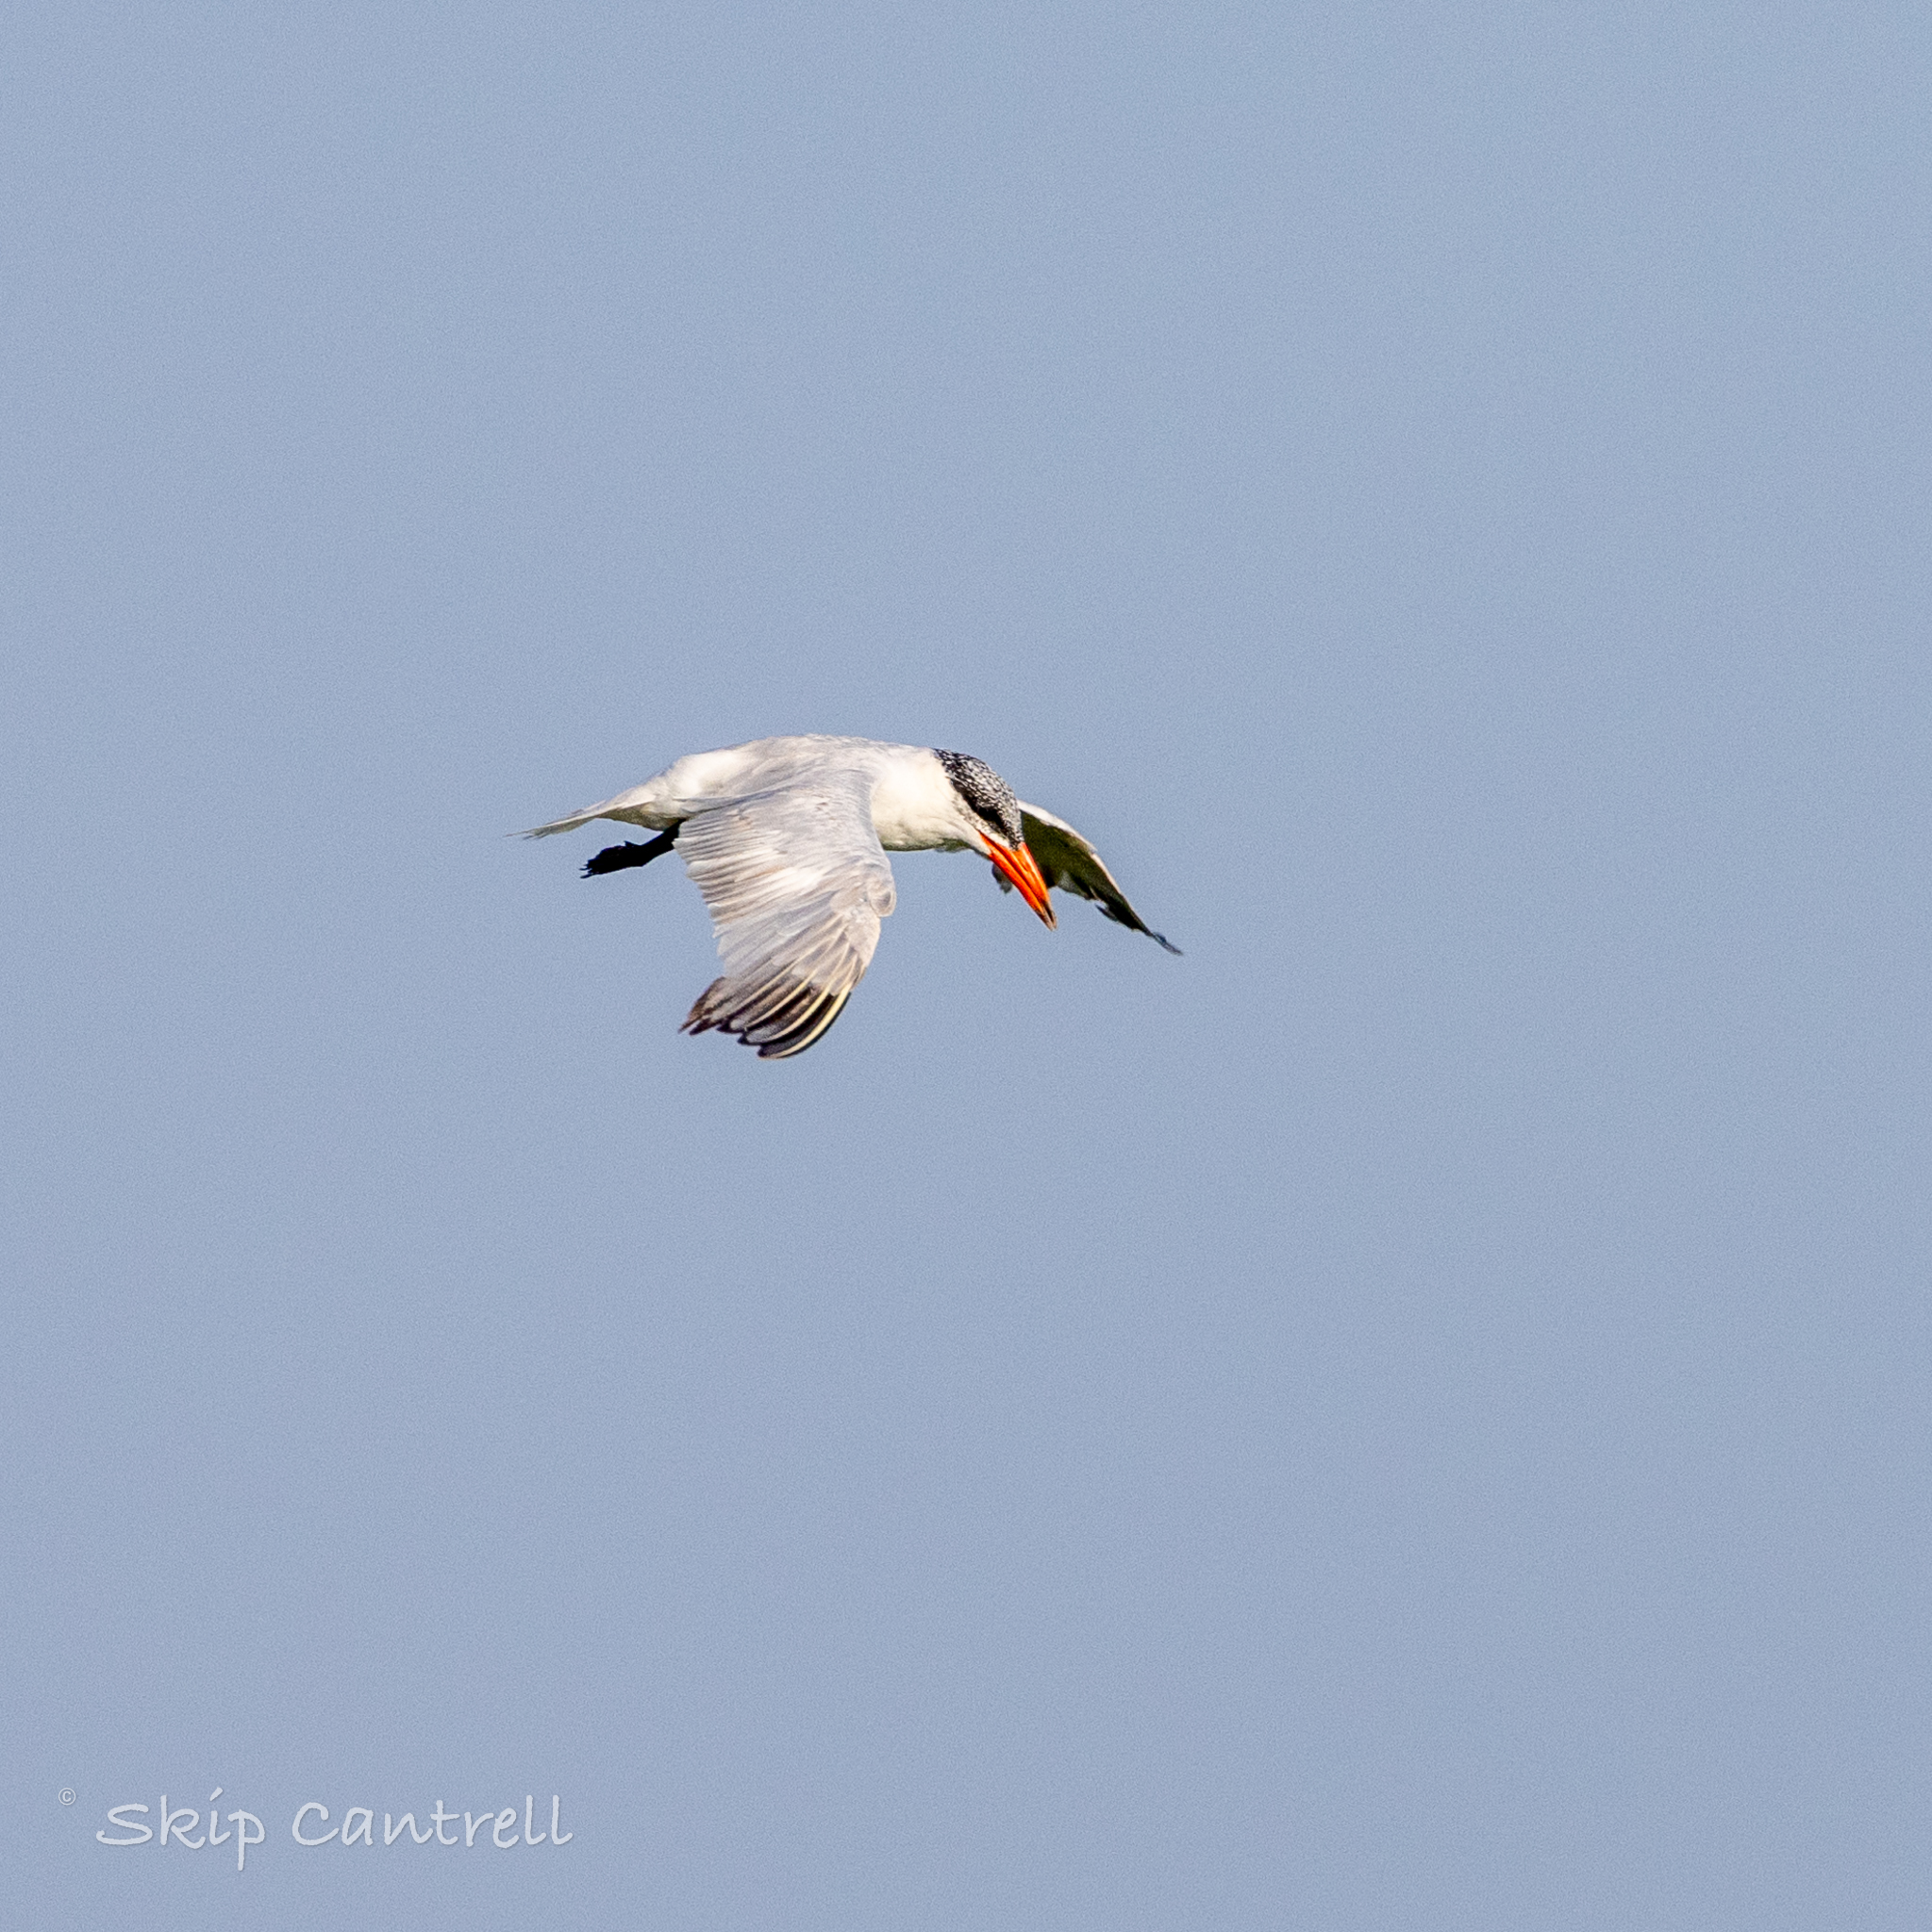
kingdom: Animalia
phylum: Chordata
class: Aves
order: Charadriiformes
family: Laridae
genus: Hydroprogne
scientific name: Hydroprogne caspia
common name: Caspian tern
